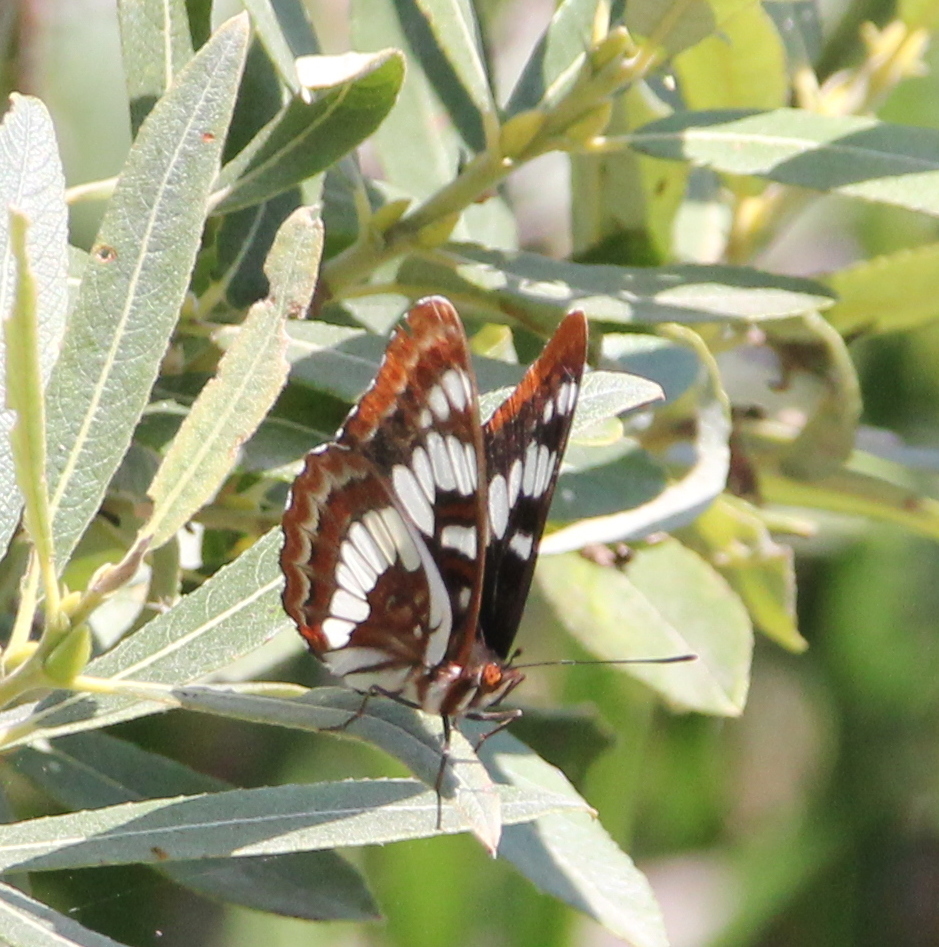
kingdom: Animalia
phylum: Arthropoda
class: Insecta
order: Lepidoptera
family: Nymphalidae
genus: Limenitis
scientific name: Limenitis lorquini
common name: Lorquin's admiral
